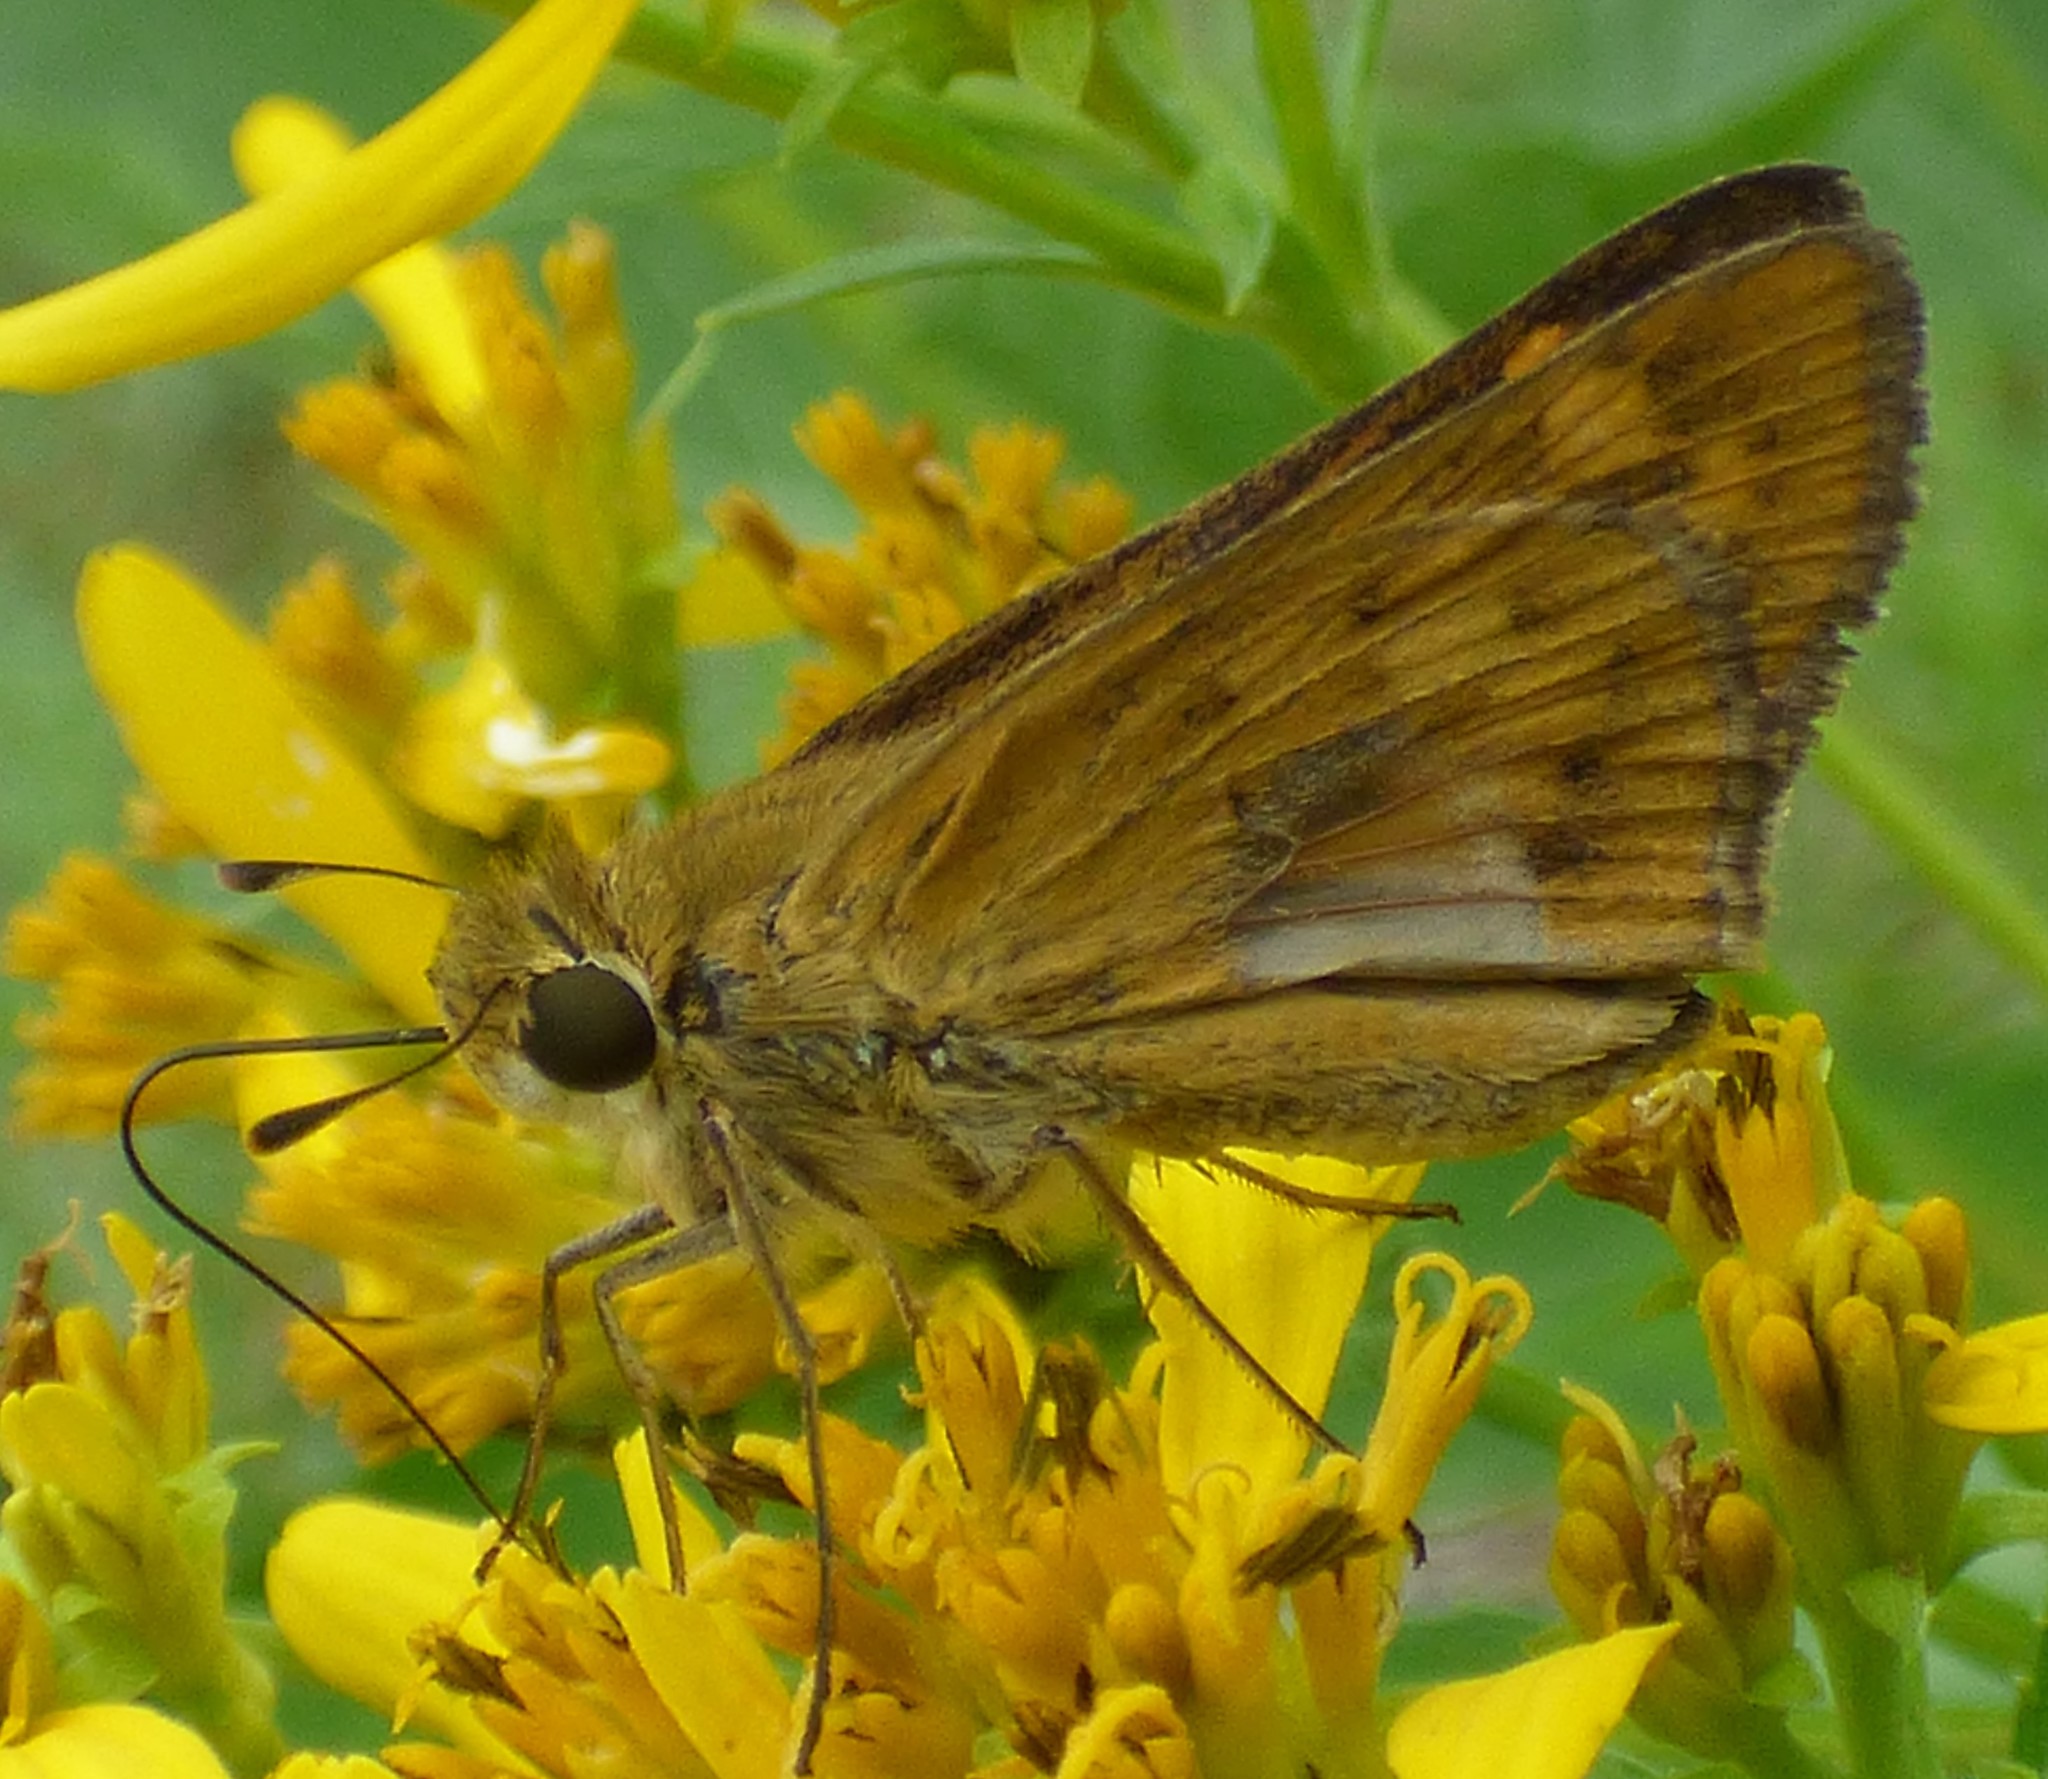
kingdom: Animalia
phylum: Arthropoda
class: Insecta
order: Lepidoptera
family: Hesperiidae
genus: Hylephila
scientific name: Hylephila phyleus
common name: Fiery skipper
